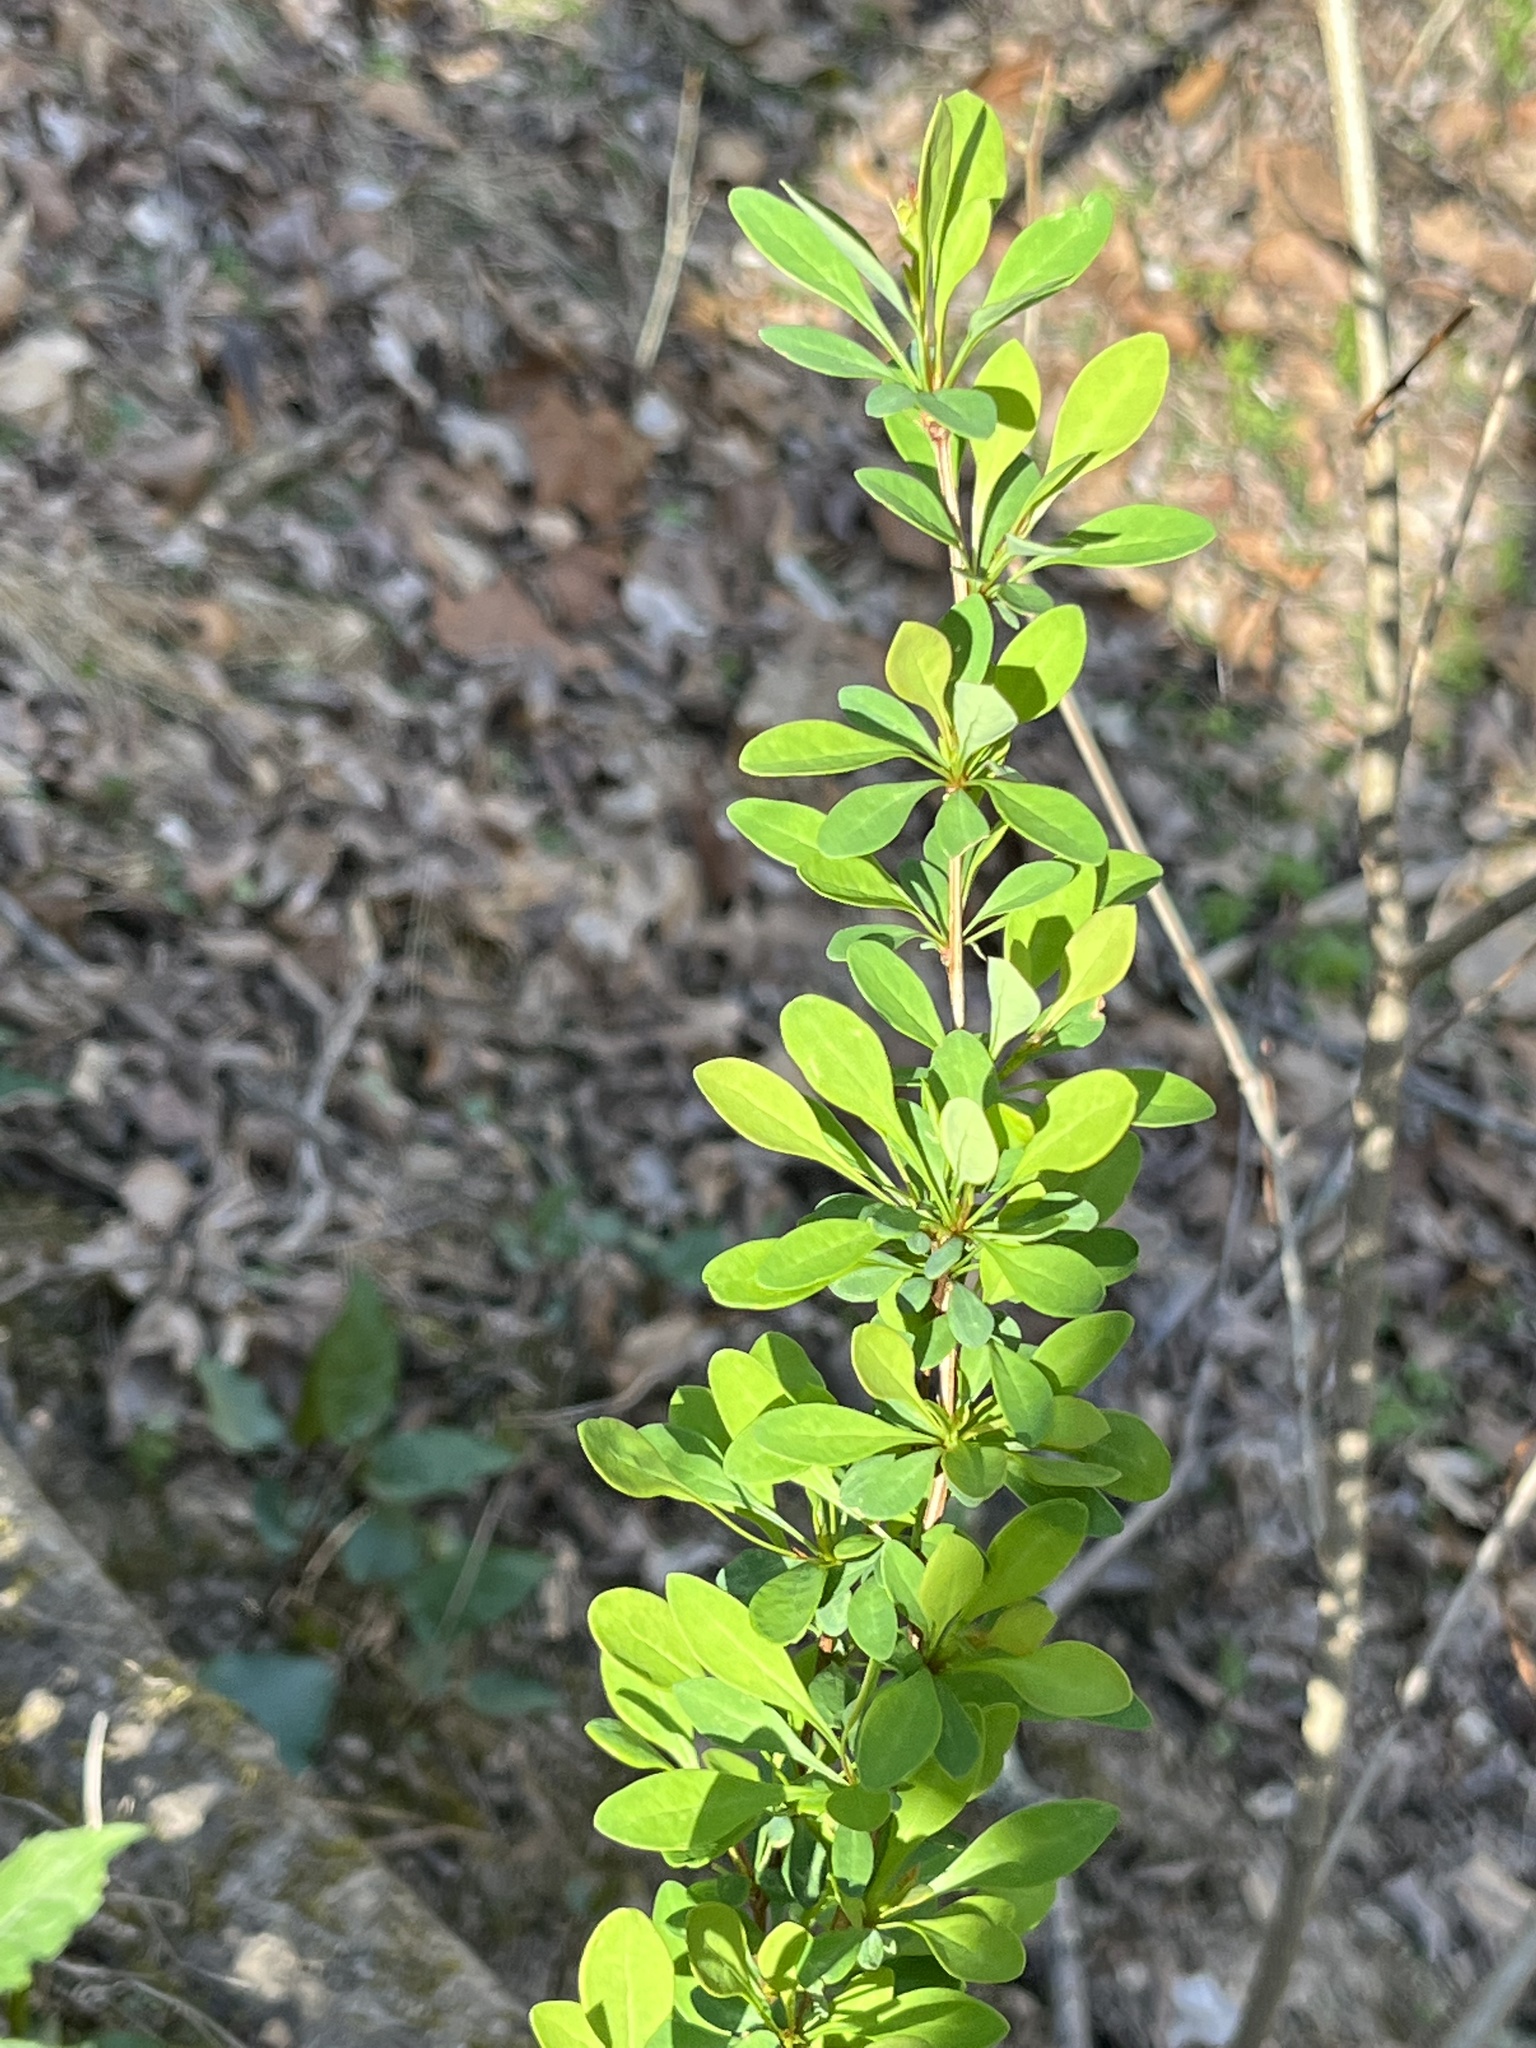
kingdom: Plantae
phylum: Tracheophyta
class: Magnoliopsida
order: Ranunculales
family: Berberidaceae
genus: Berberis
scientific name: Berberis thunbergii
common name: Japanese barberry
